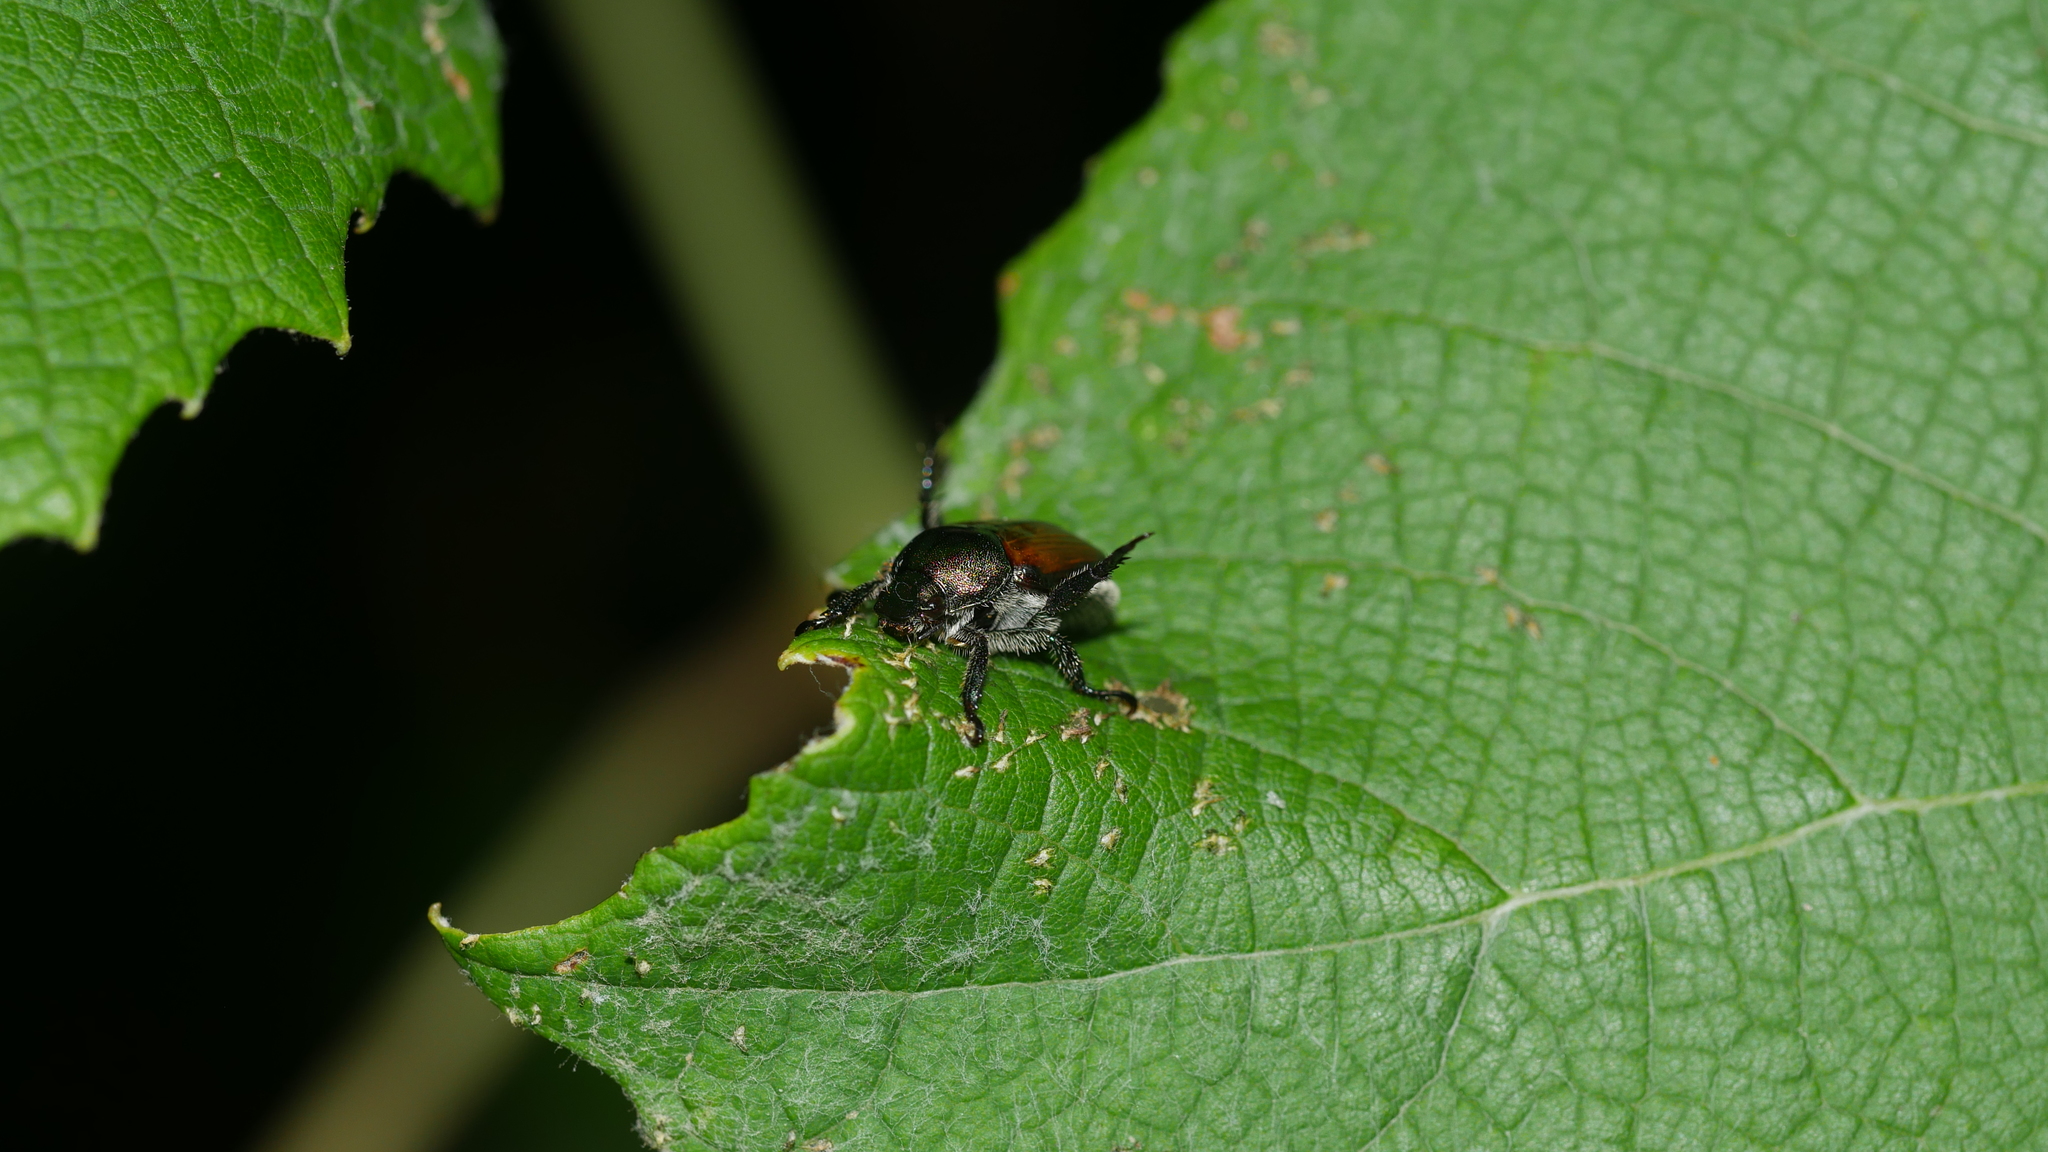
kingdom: Animalia
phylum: Arthropoda
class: Insecta
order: Coleoptera
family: Scarabaeidae
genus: Popillia
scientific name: Popillia japonica
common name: Japanese beetle
